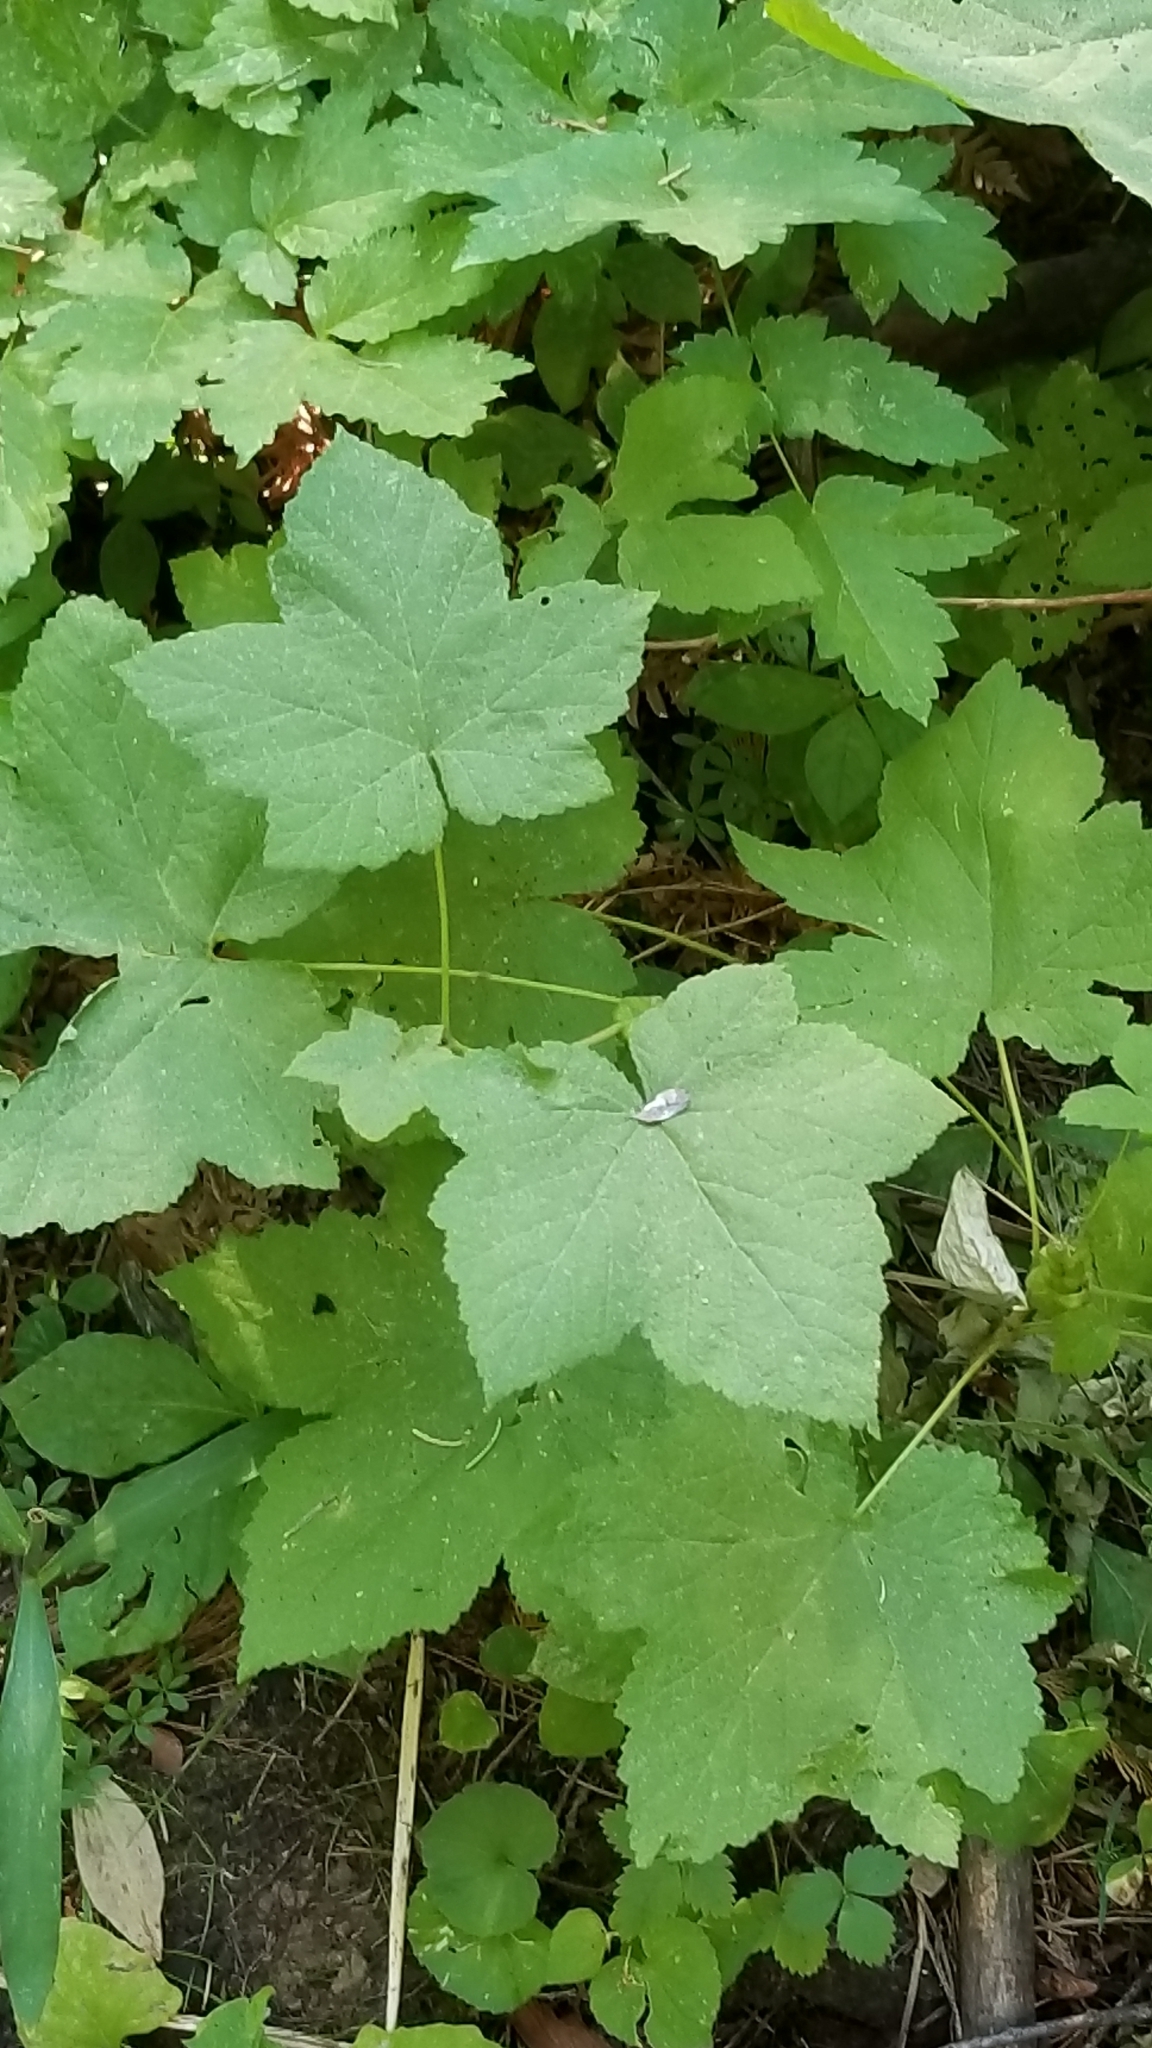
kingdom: Plantae
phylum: Tracheophyta
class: Magnoliopsida
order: Rosales
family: Rosaceae
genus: Rubus
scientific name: Rubus parviflorus
